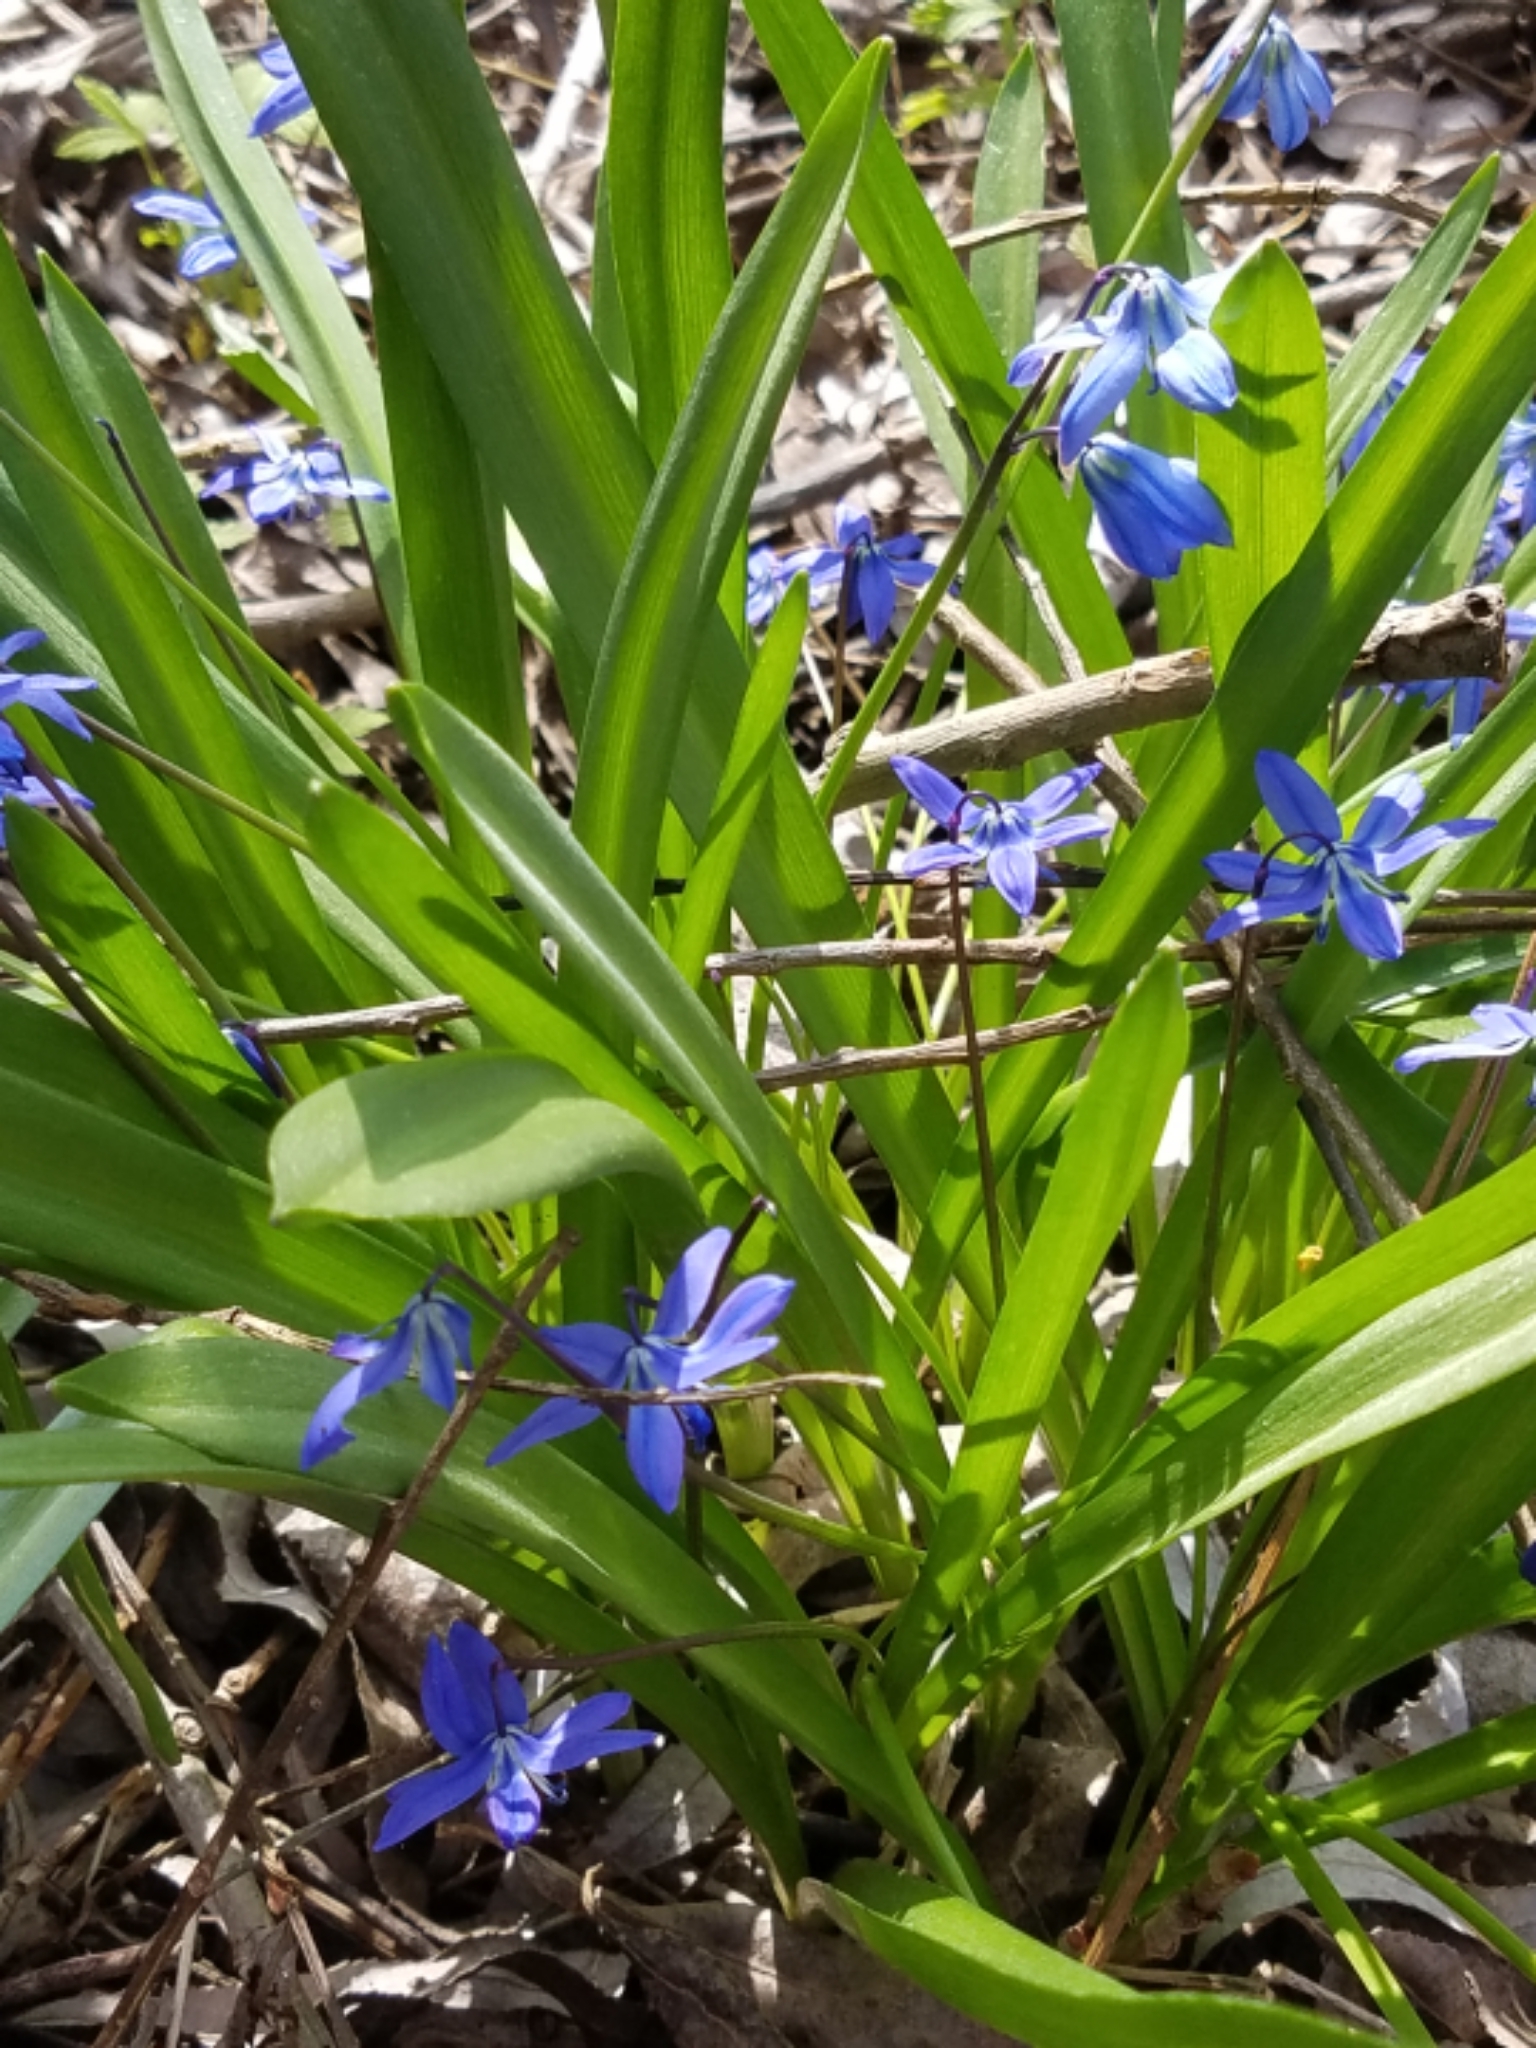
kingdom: Plantae
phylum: Tracheophyta
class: Liliopsida
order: Asparagales
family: Asparagaceae
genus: Scilla
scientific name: Scilla siberica
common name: Siberian squill
